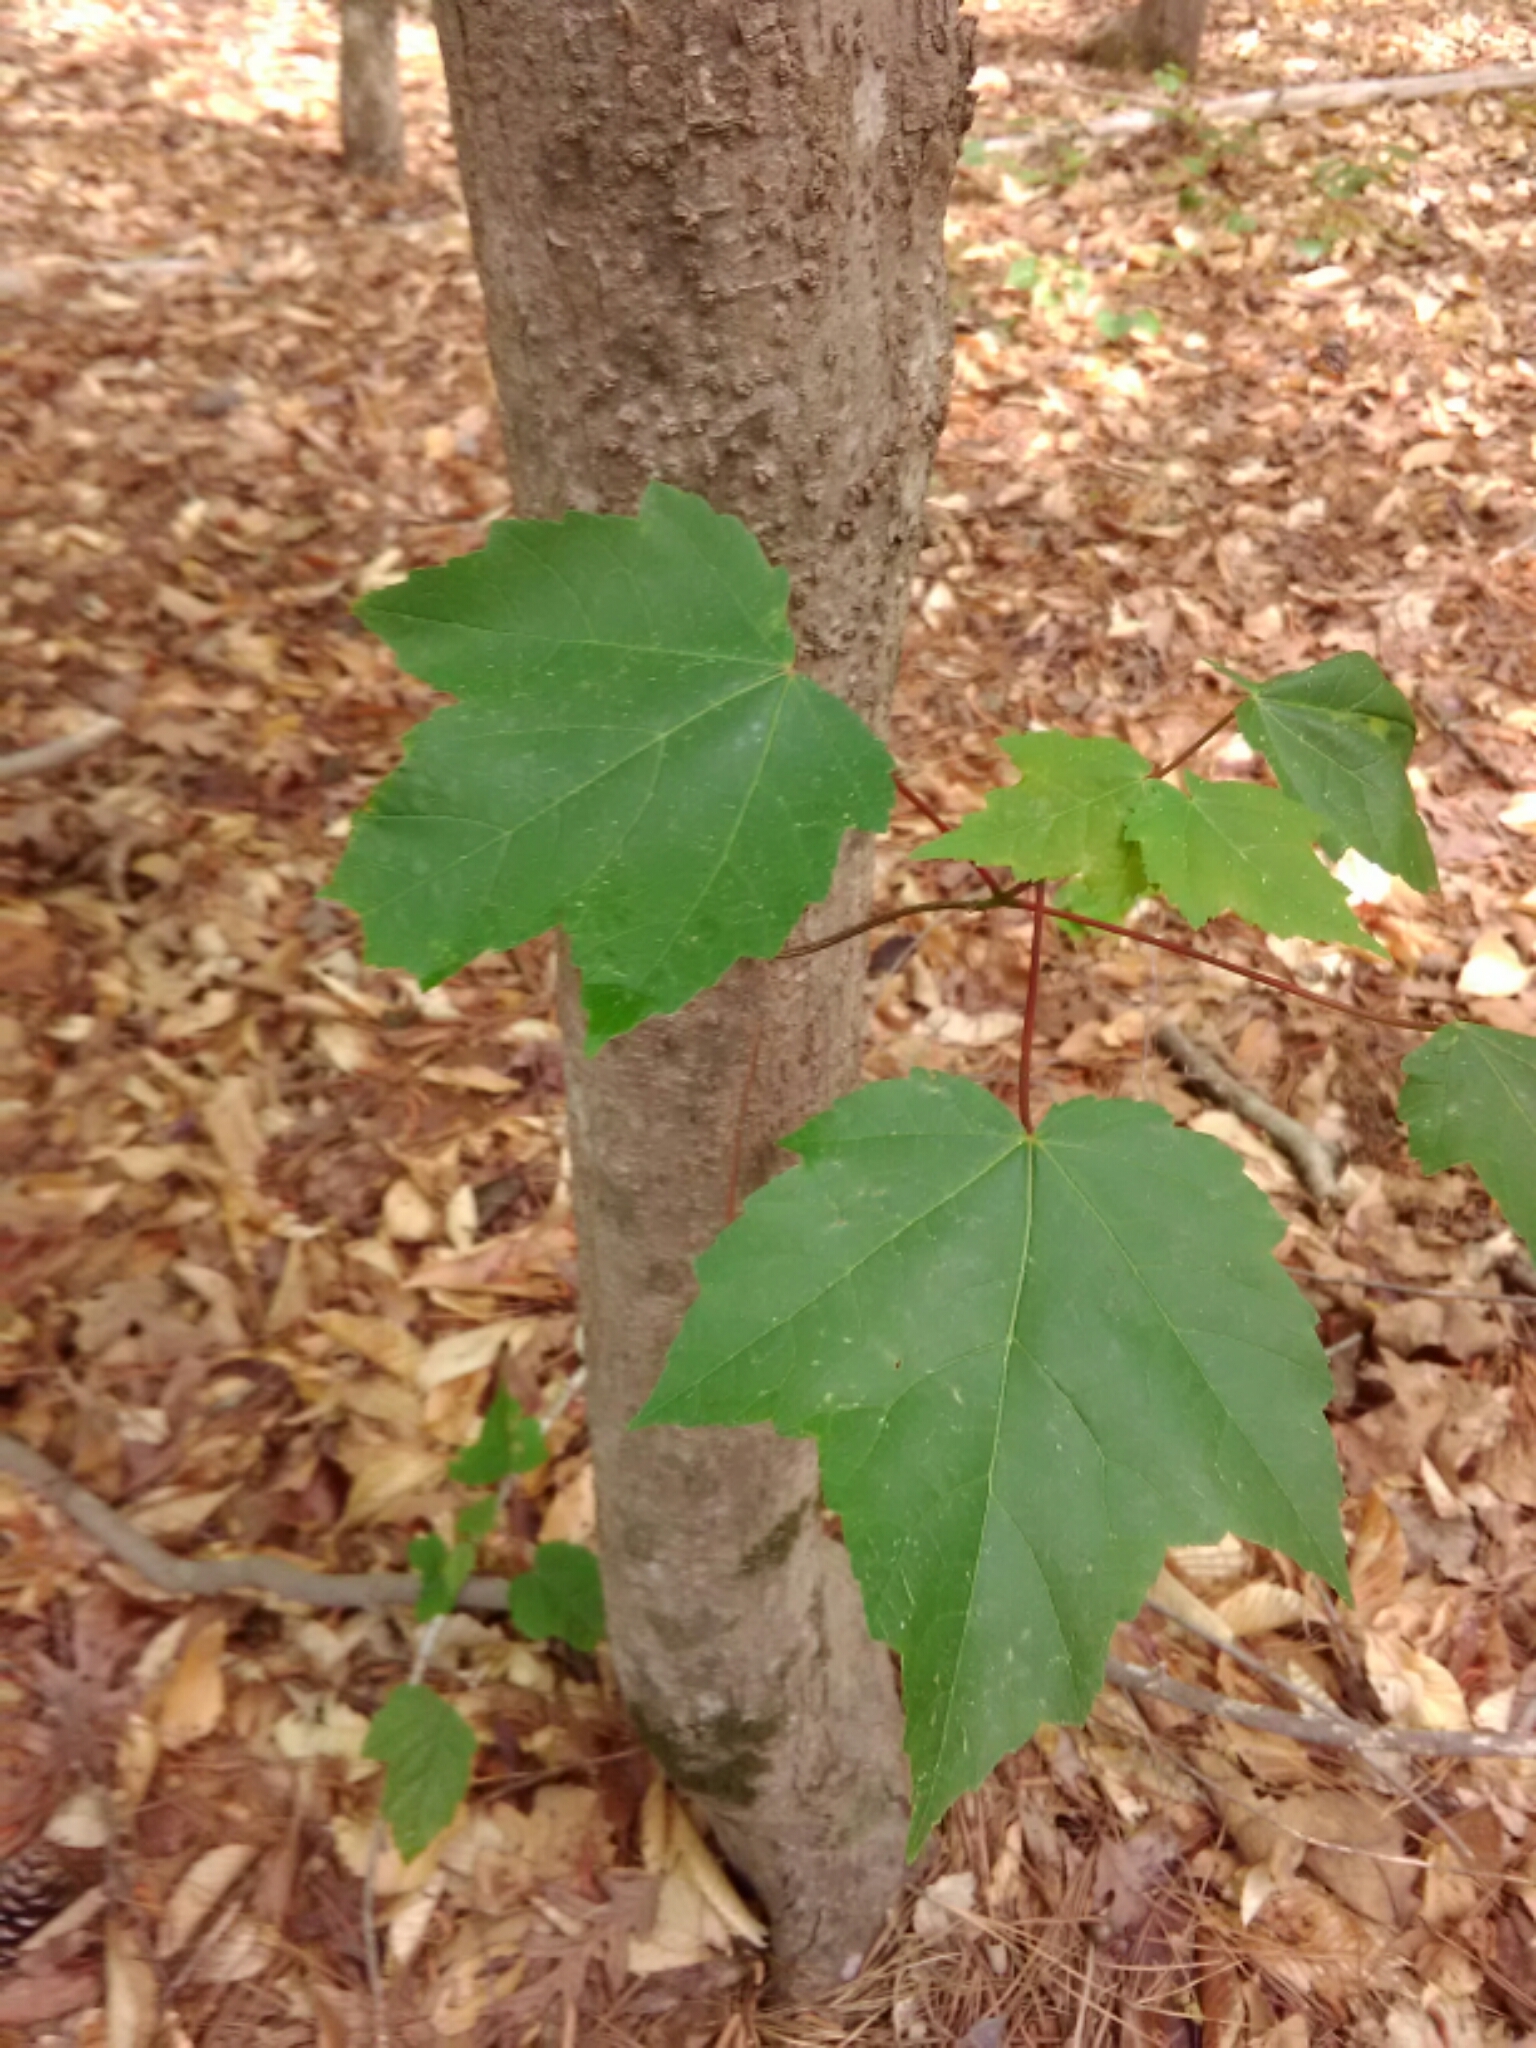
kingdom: Plantae
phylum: Tracheophyta
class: Magnoliopsida
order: Sapindales
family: Sapindaceae
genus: Acer
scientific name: Acer rubrum
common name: Red maple
